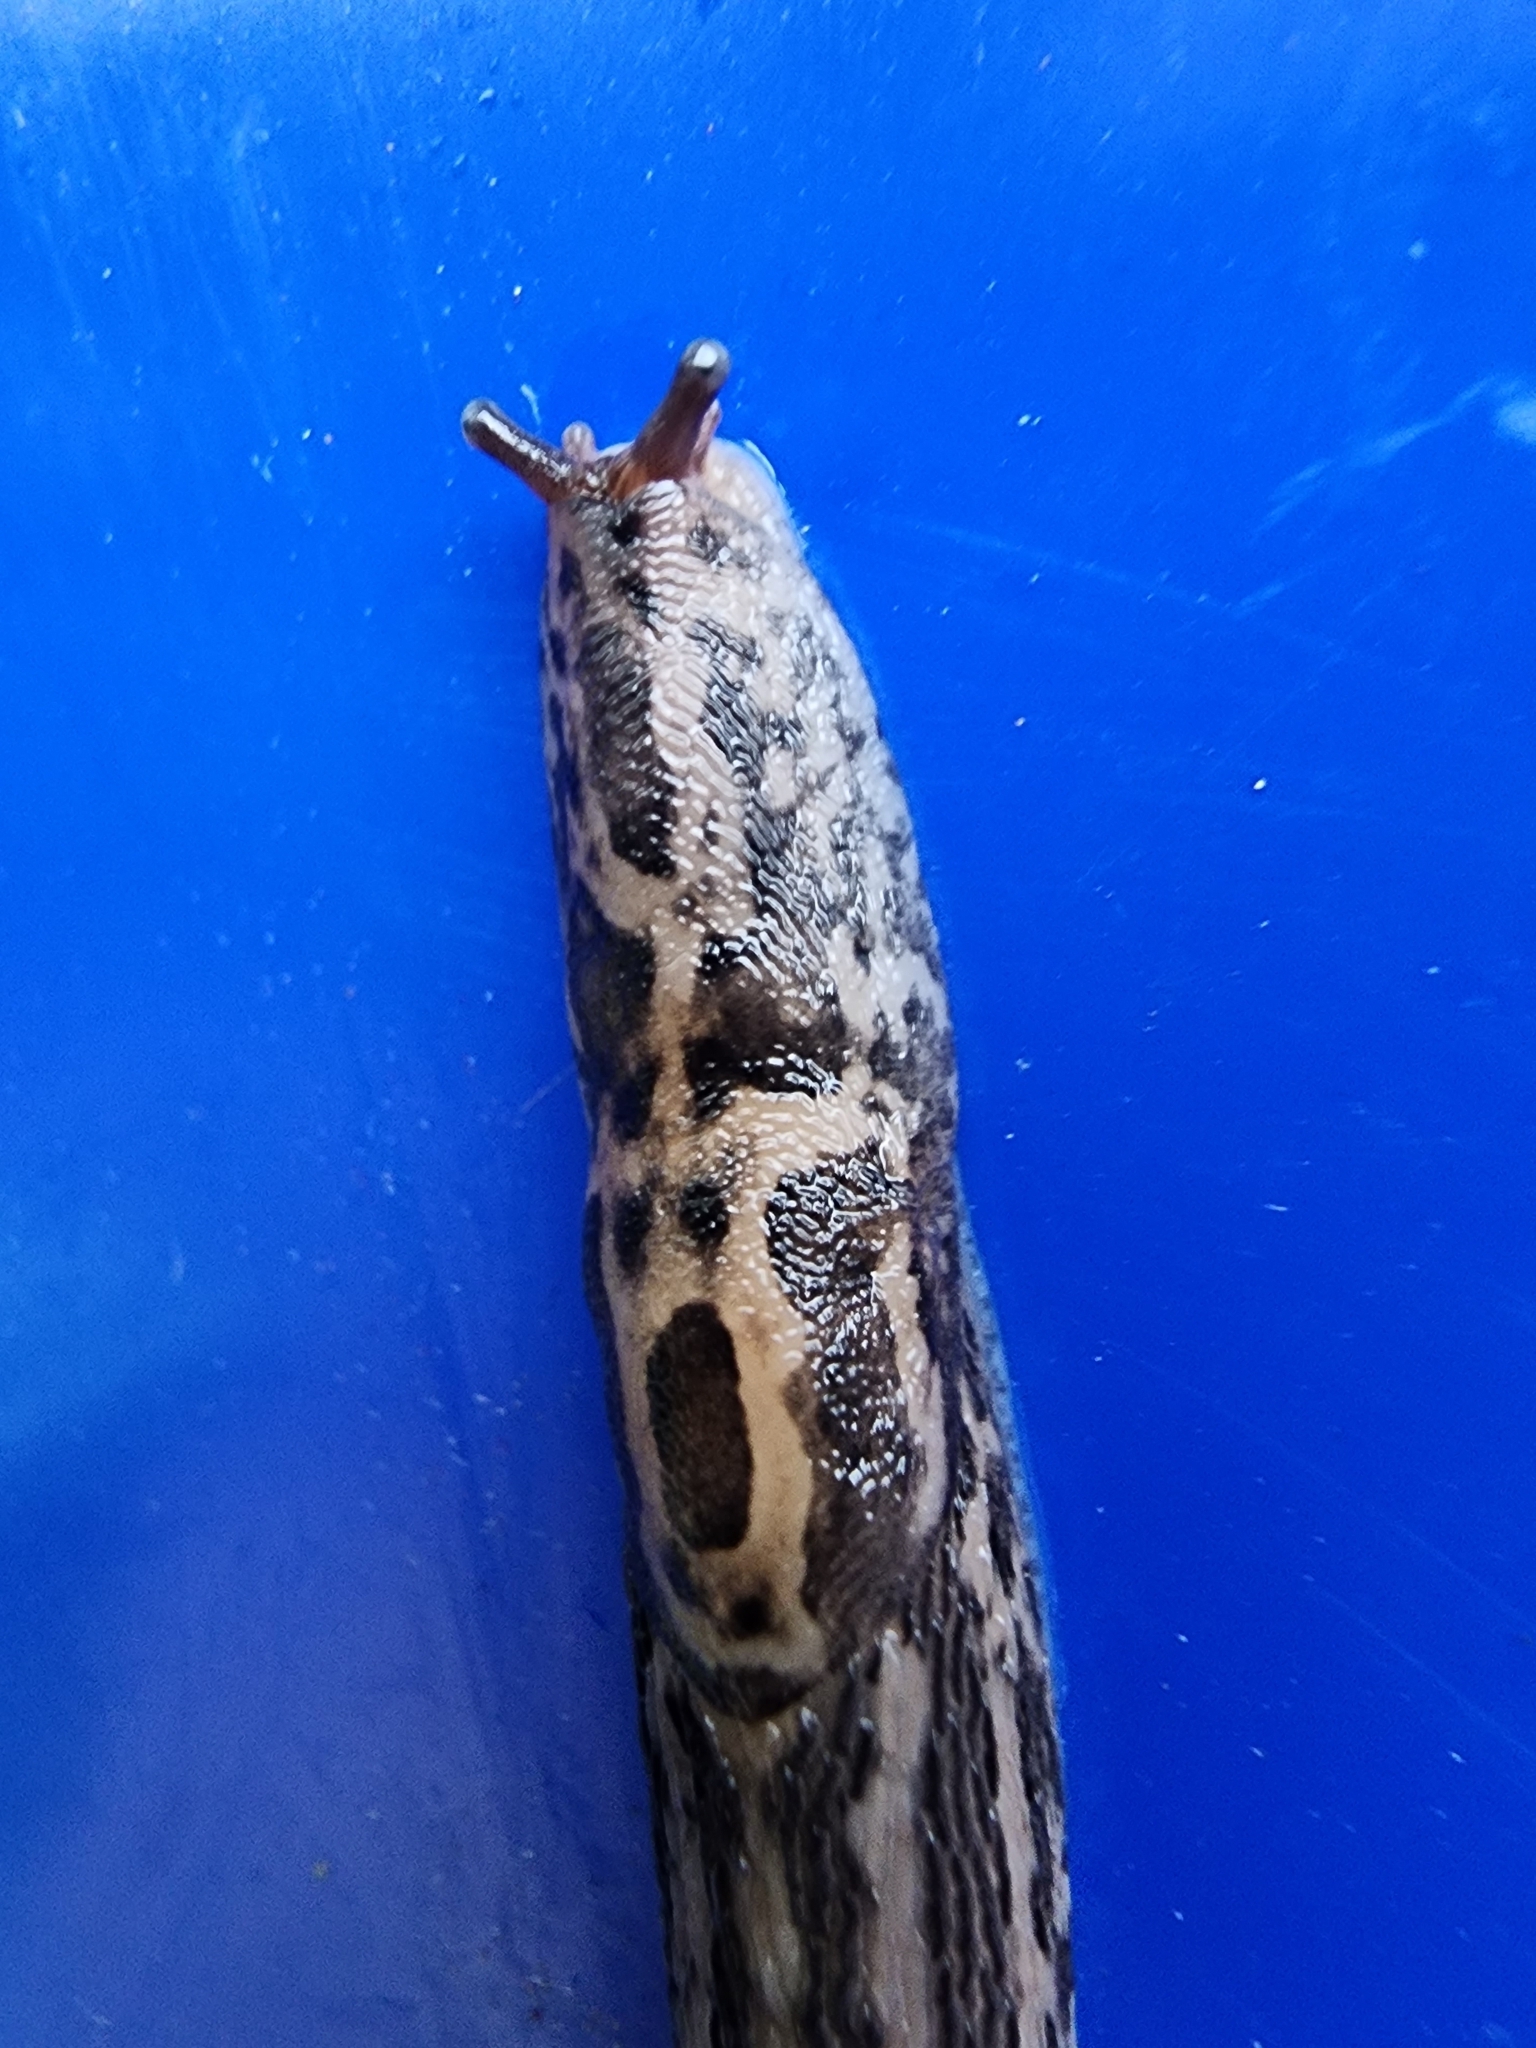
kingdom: Animalia
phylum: Mollusca
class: Gastropoda
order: Stylommatophora
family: Limacidae
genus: Limax
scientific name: Limax maximus
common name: Great grey slug
